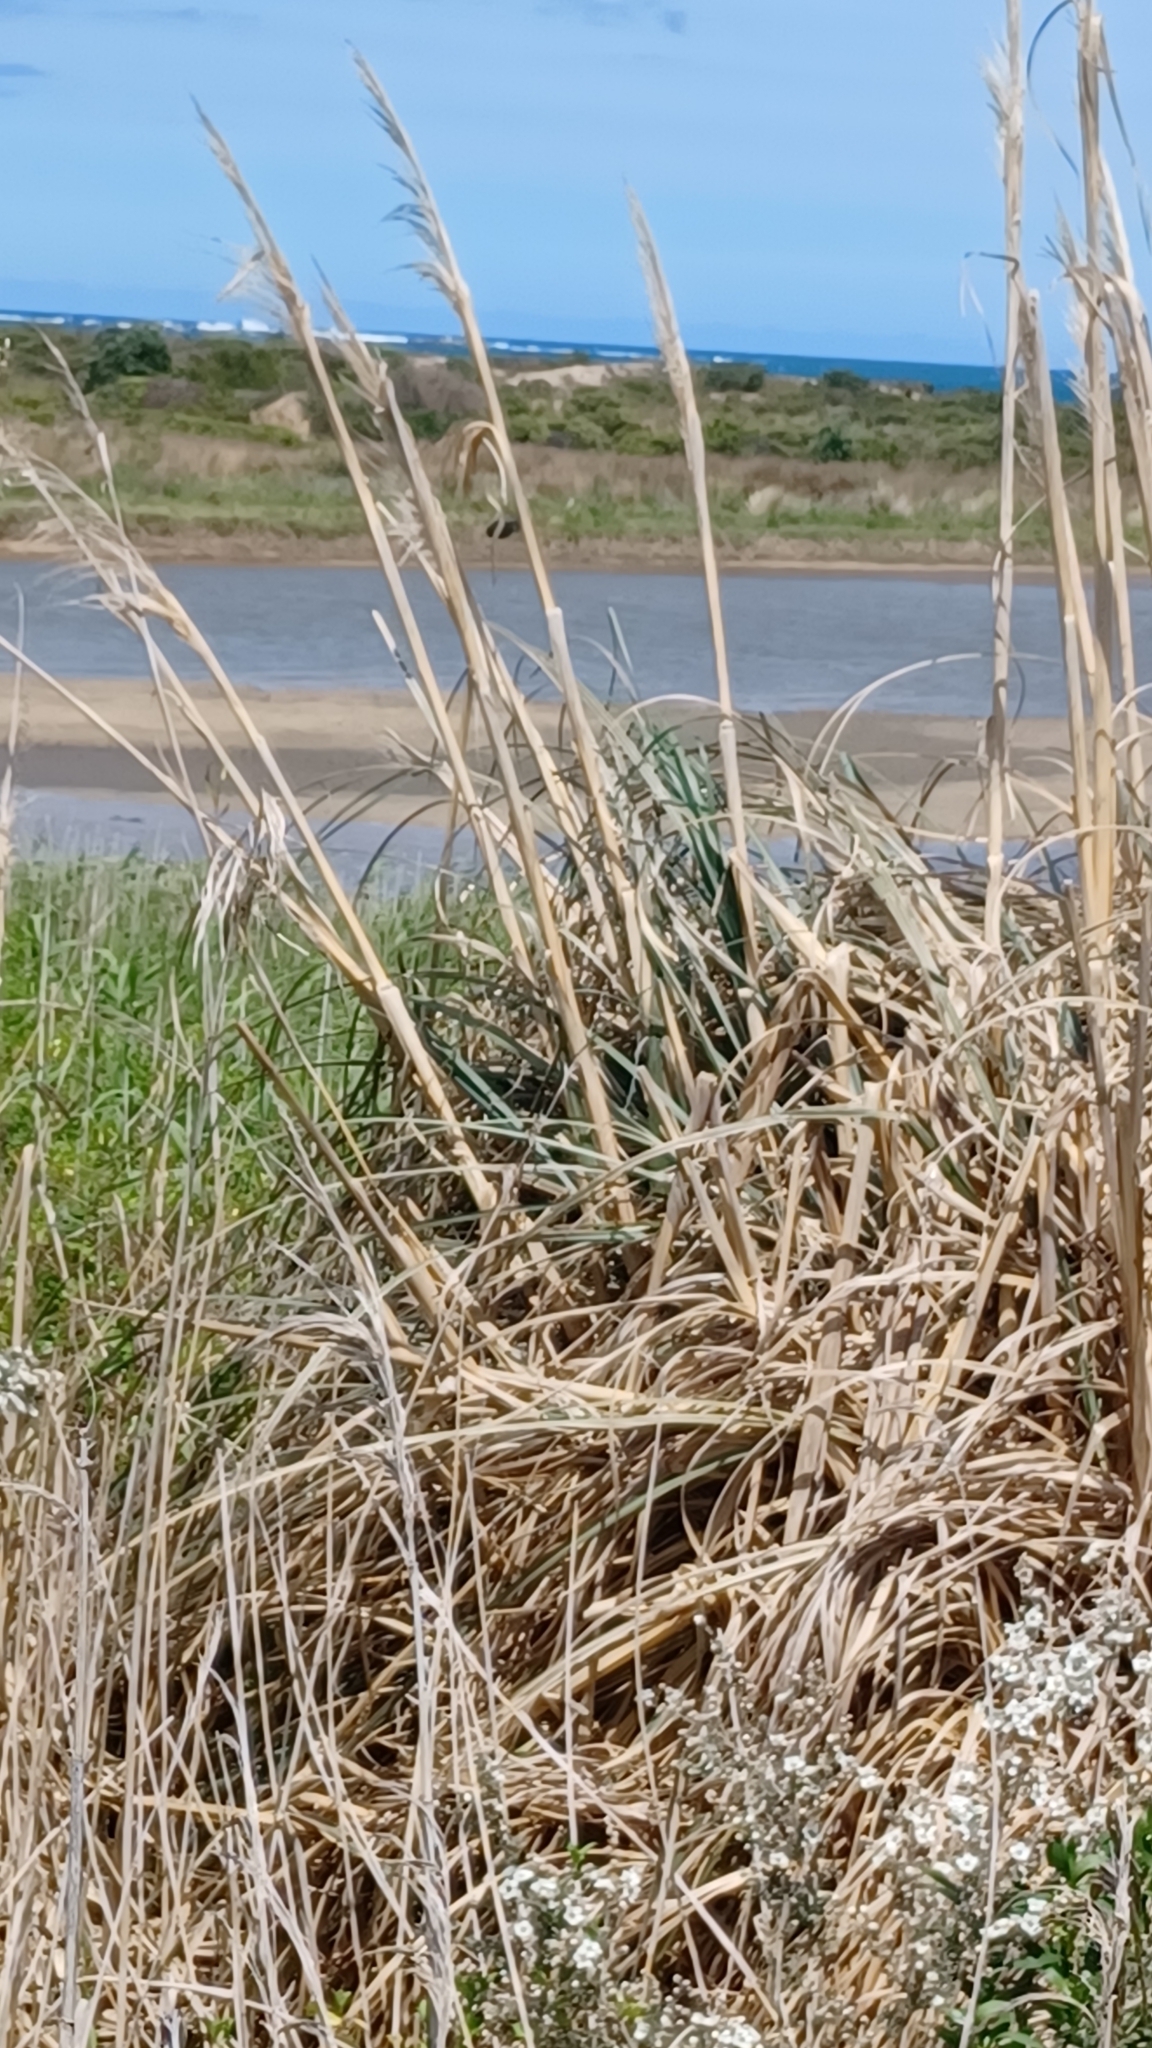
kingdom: Plantae
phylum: Tracheophyta
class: Liliopsida
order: Poales
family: Poaceae
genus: Cortaderia
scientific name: Cortaderia selloana
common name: Uruguayan pampas grass
